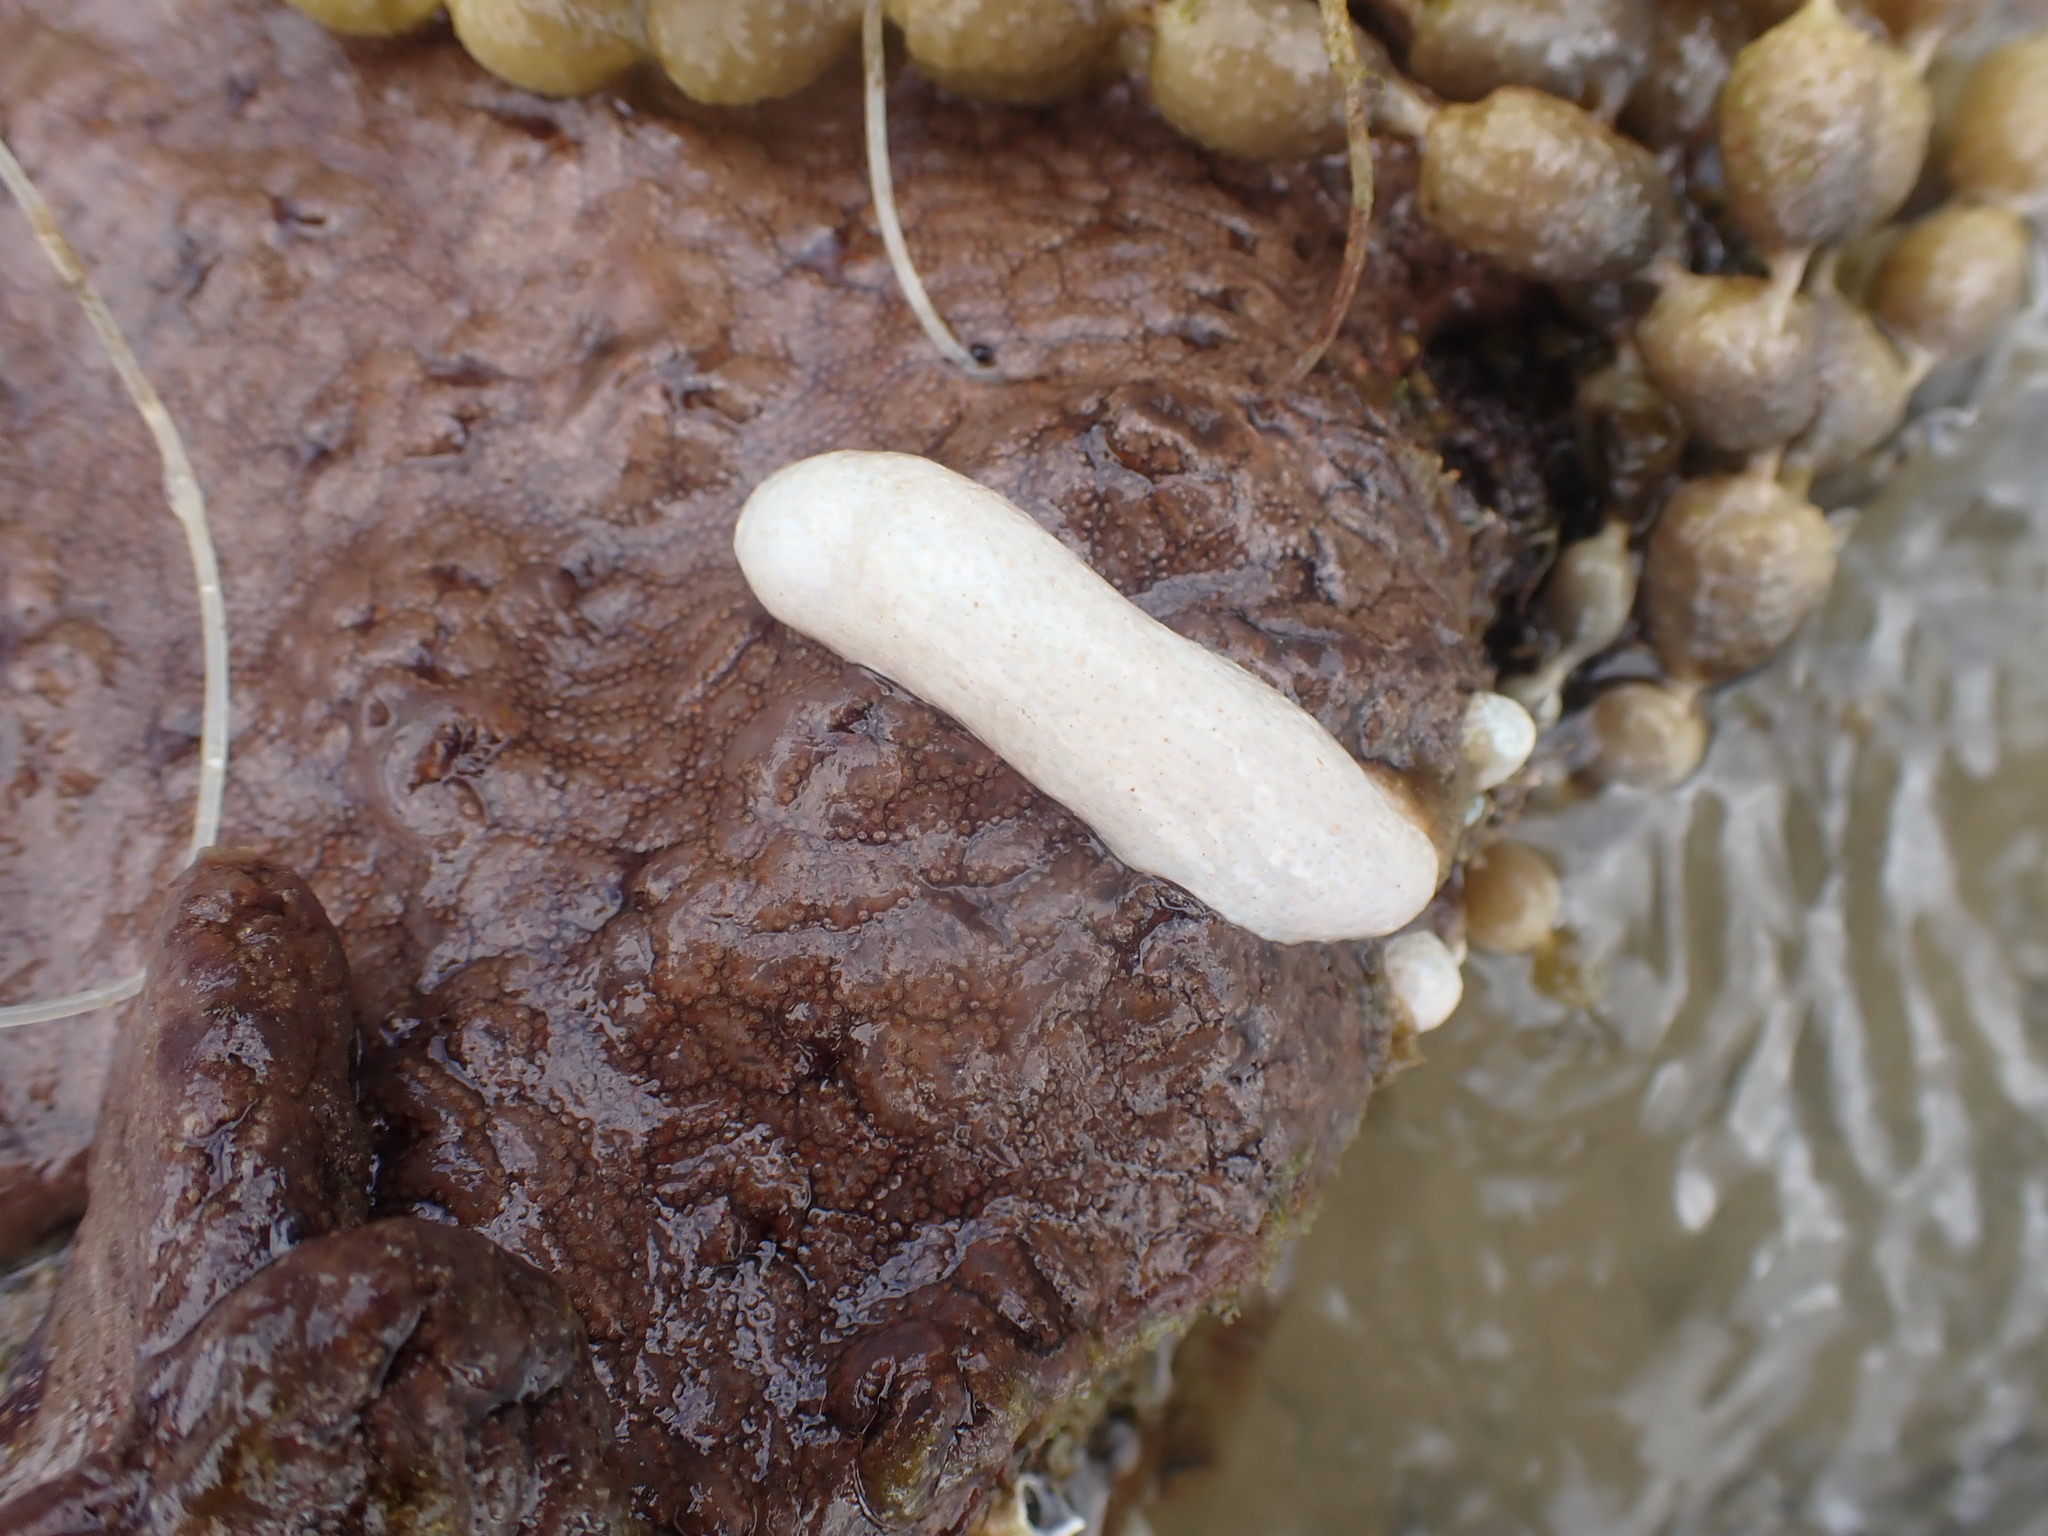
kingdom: Animalia
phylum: Chordata
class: Ascidiacea
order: Aplousobranchia
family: Polycitoridae
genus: Eudistoma
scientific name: Eudistoma elongatum
